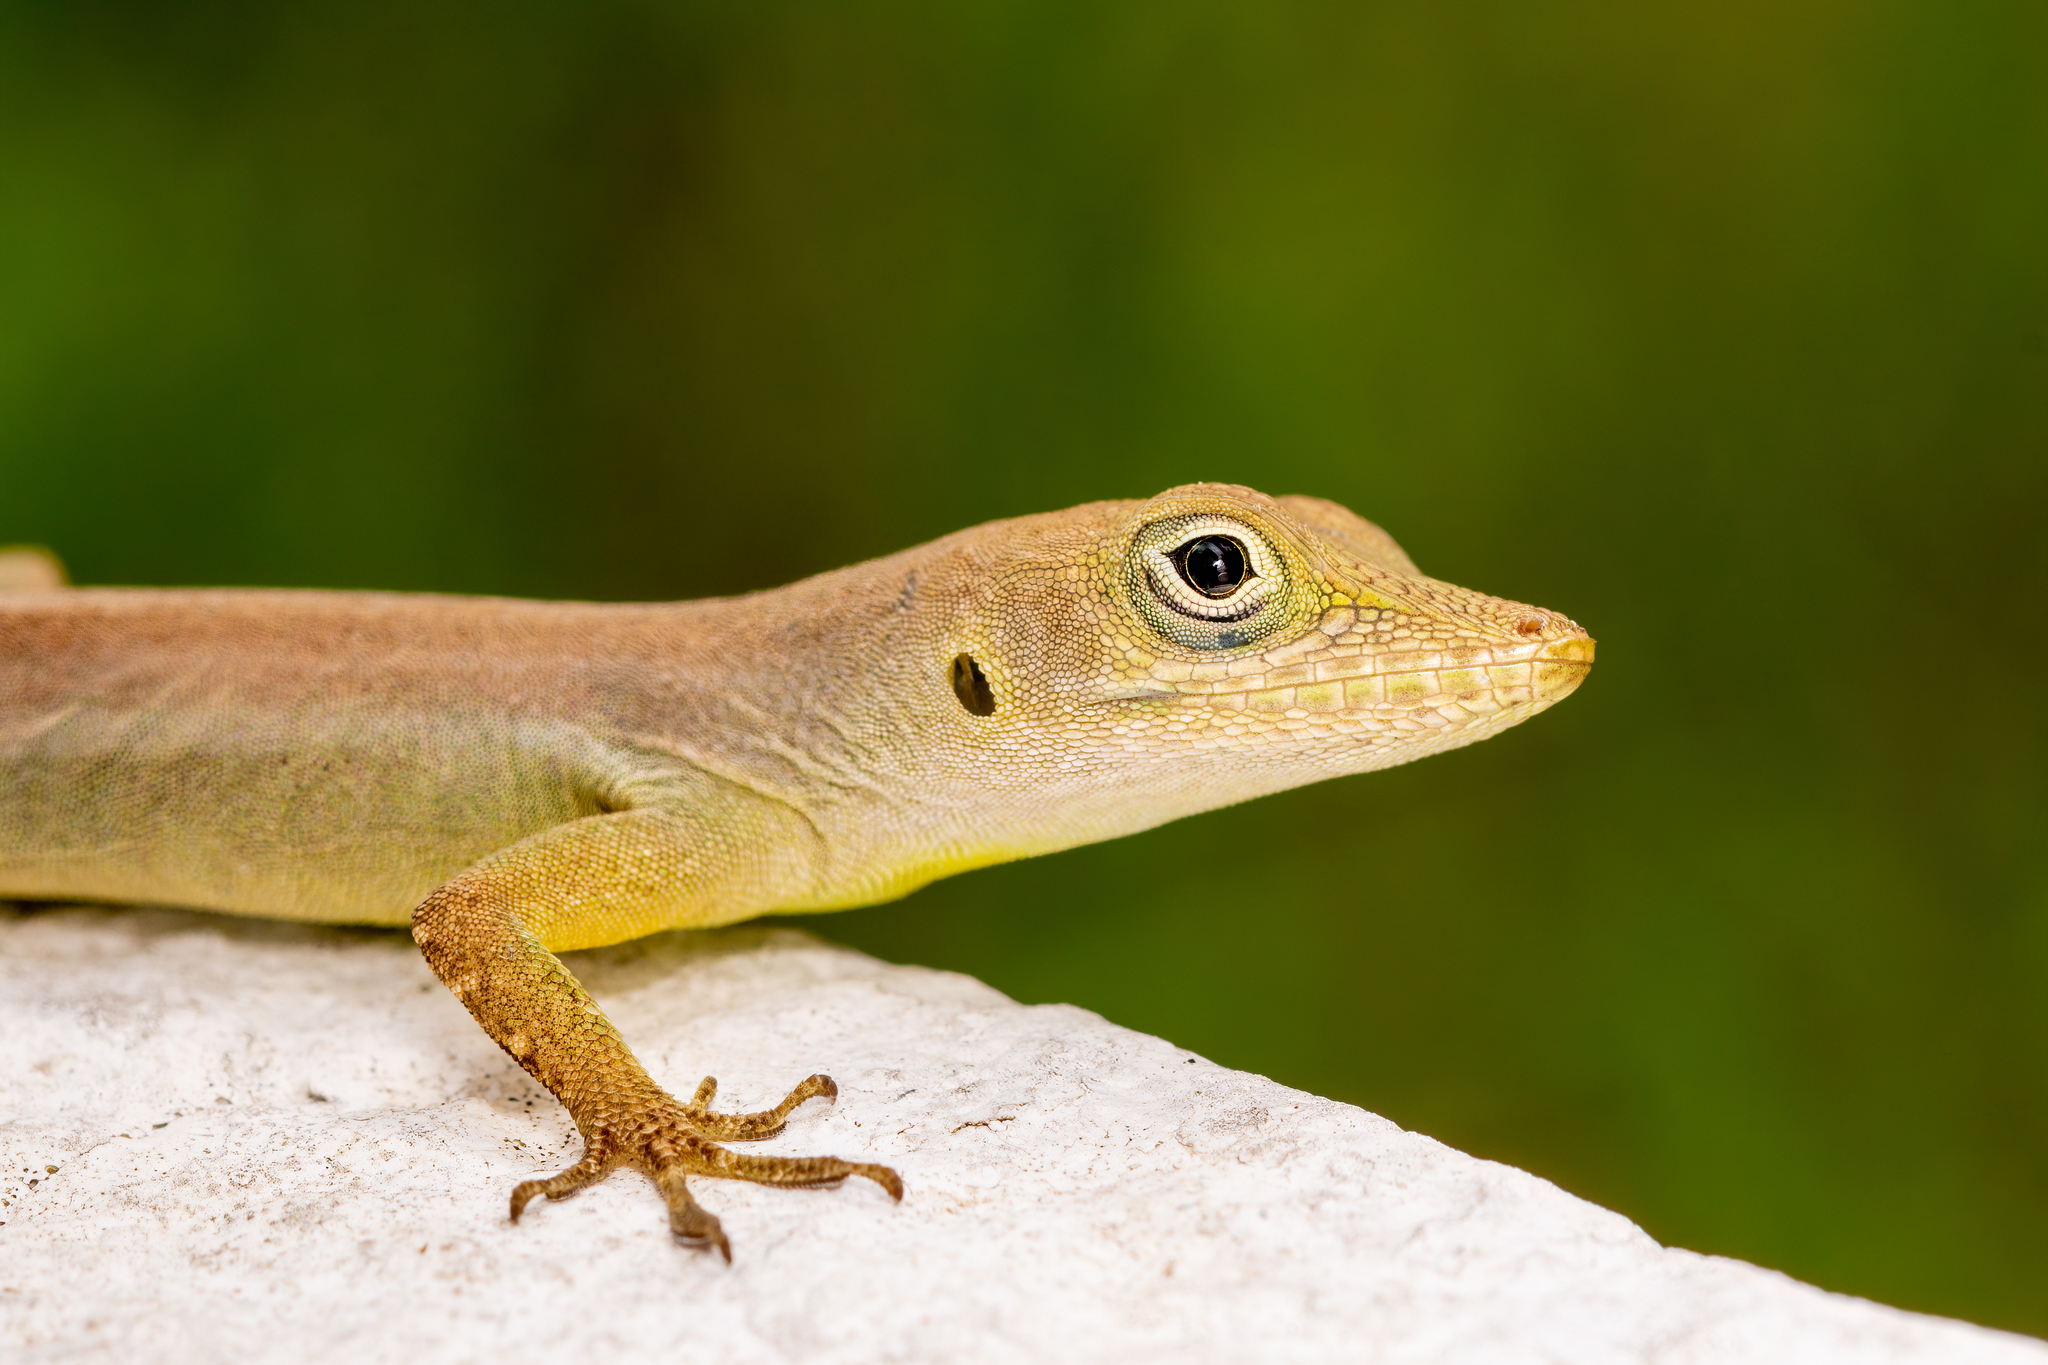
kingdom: Animalia
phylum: Chordata
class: Squamata
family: Dactyloidae
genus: Anolis
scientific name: Anolis grahami
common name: Graham's anole
